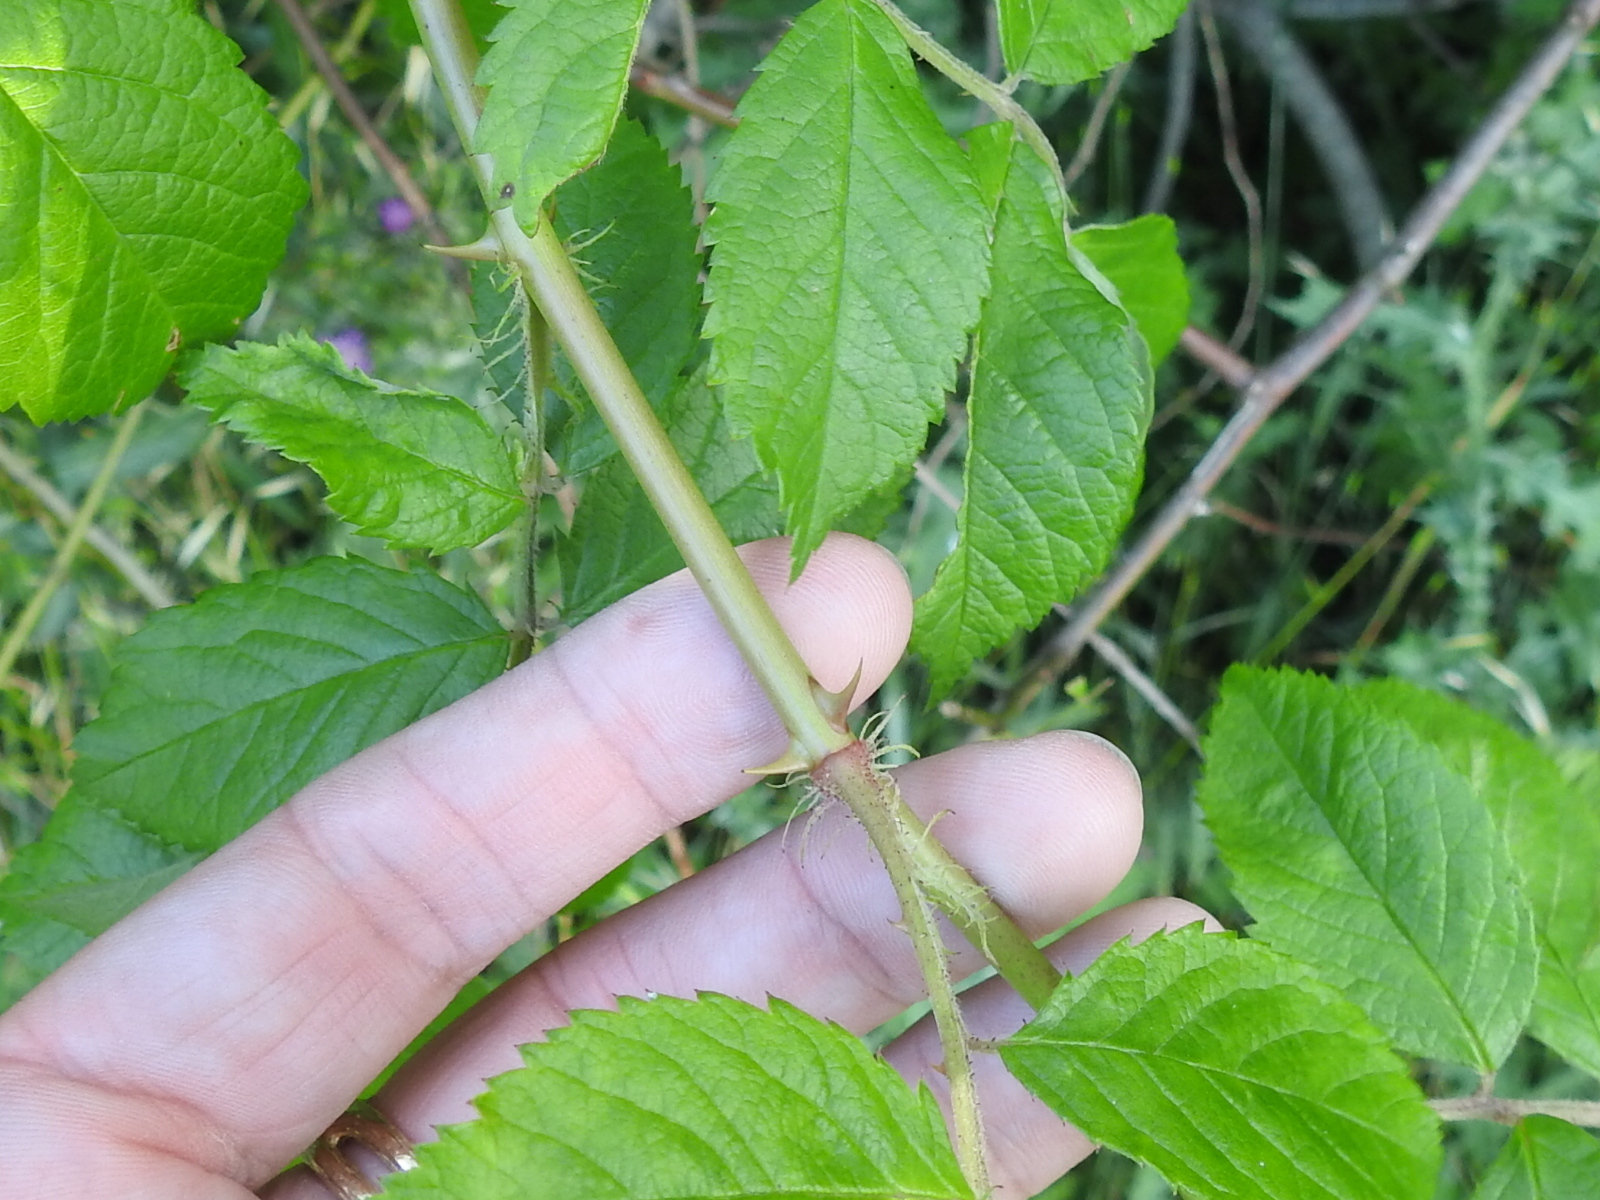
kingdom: Plantae
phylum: Tracheophyta
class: Magnoliopsida
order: Rosales
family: Rosaceae
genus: Rosa
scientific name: Rosa multiflora
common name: Multiflora rose
